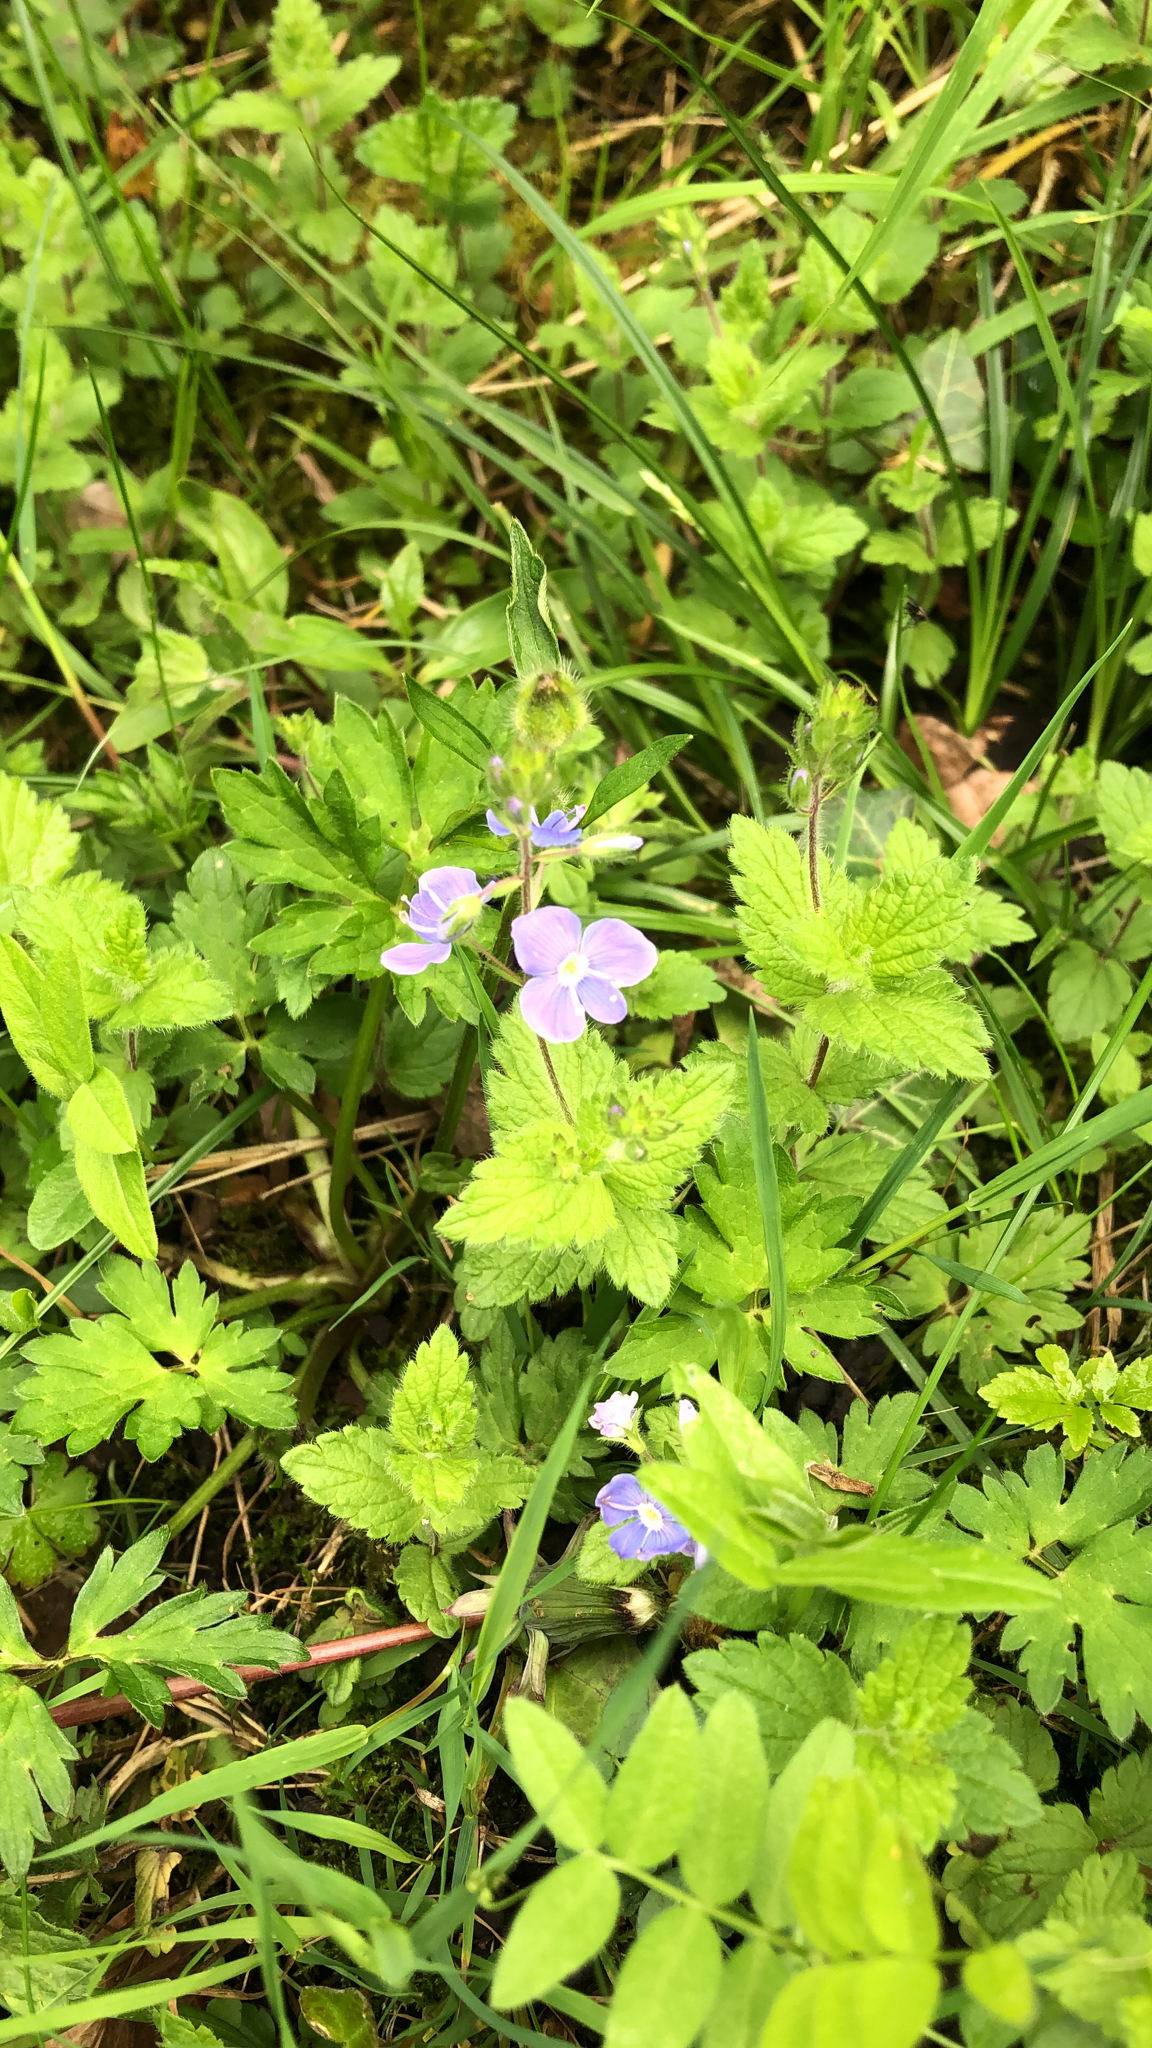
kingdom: Plantae
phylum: Tracheophyta
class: Magnoliopsida
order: Lamiales
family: Plantaginaceae
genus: Veronica
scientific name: Veronica chamaedrys
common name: Germander speedwell
